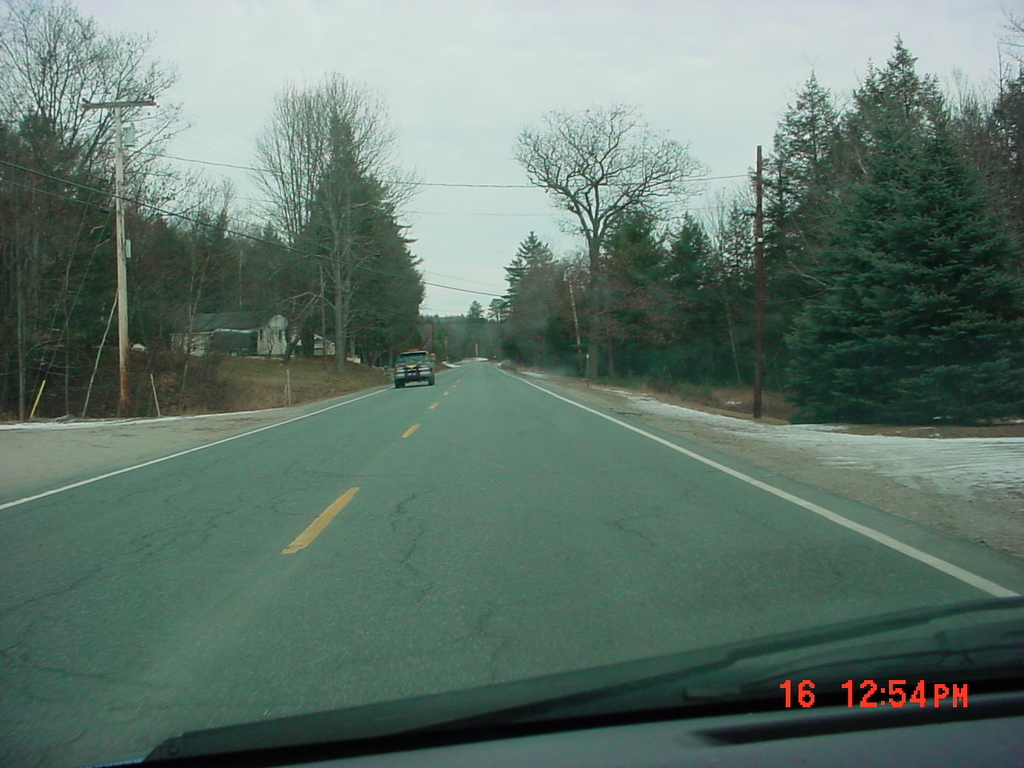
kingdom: Plantae
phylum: Tracheophyta
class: Pinopsida
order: Pinales
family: Pinaceae
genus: Pinus
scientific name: Pinus strobus
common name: Weymouth pine
